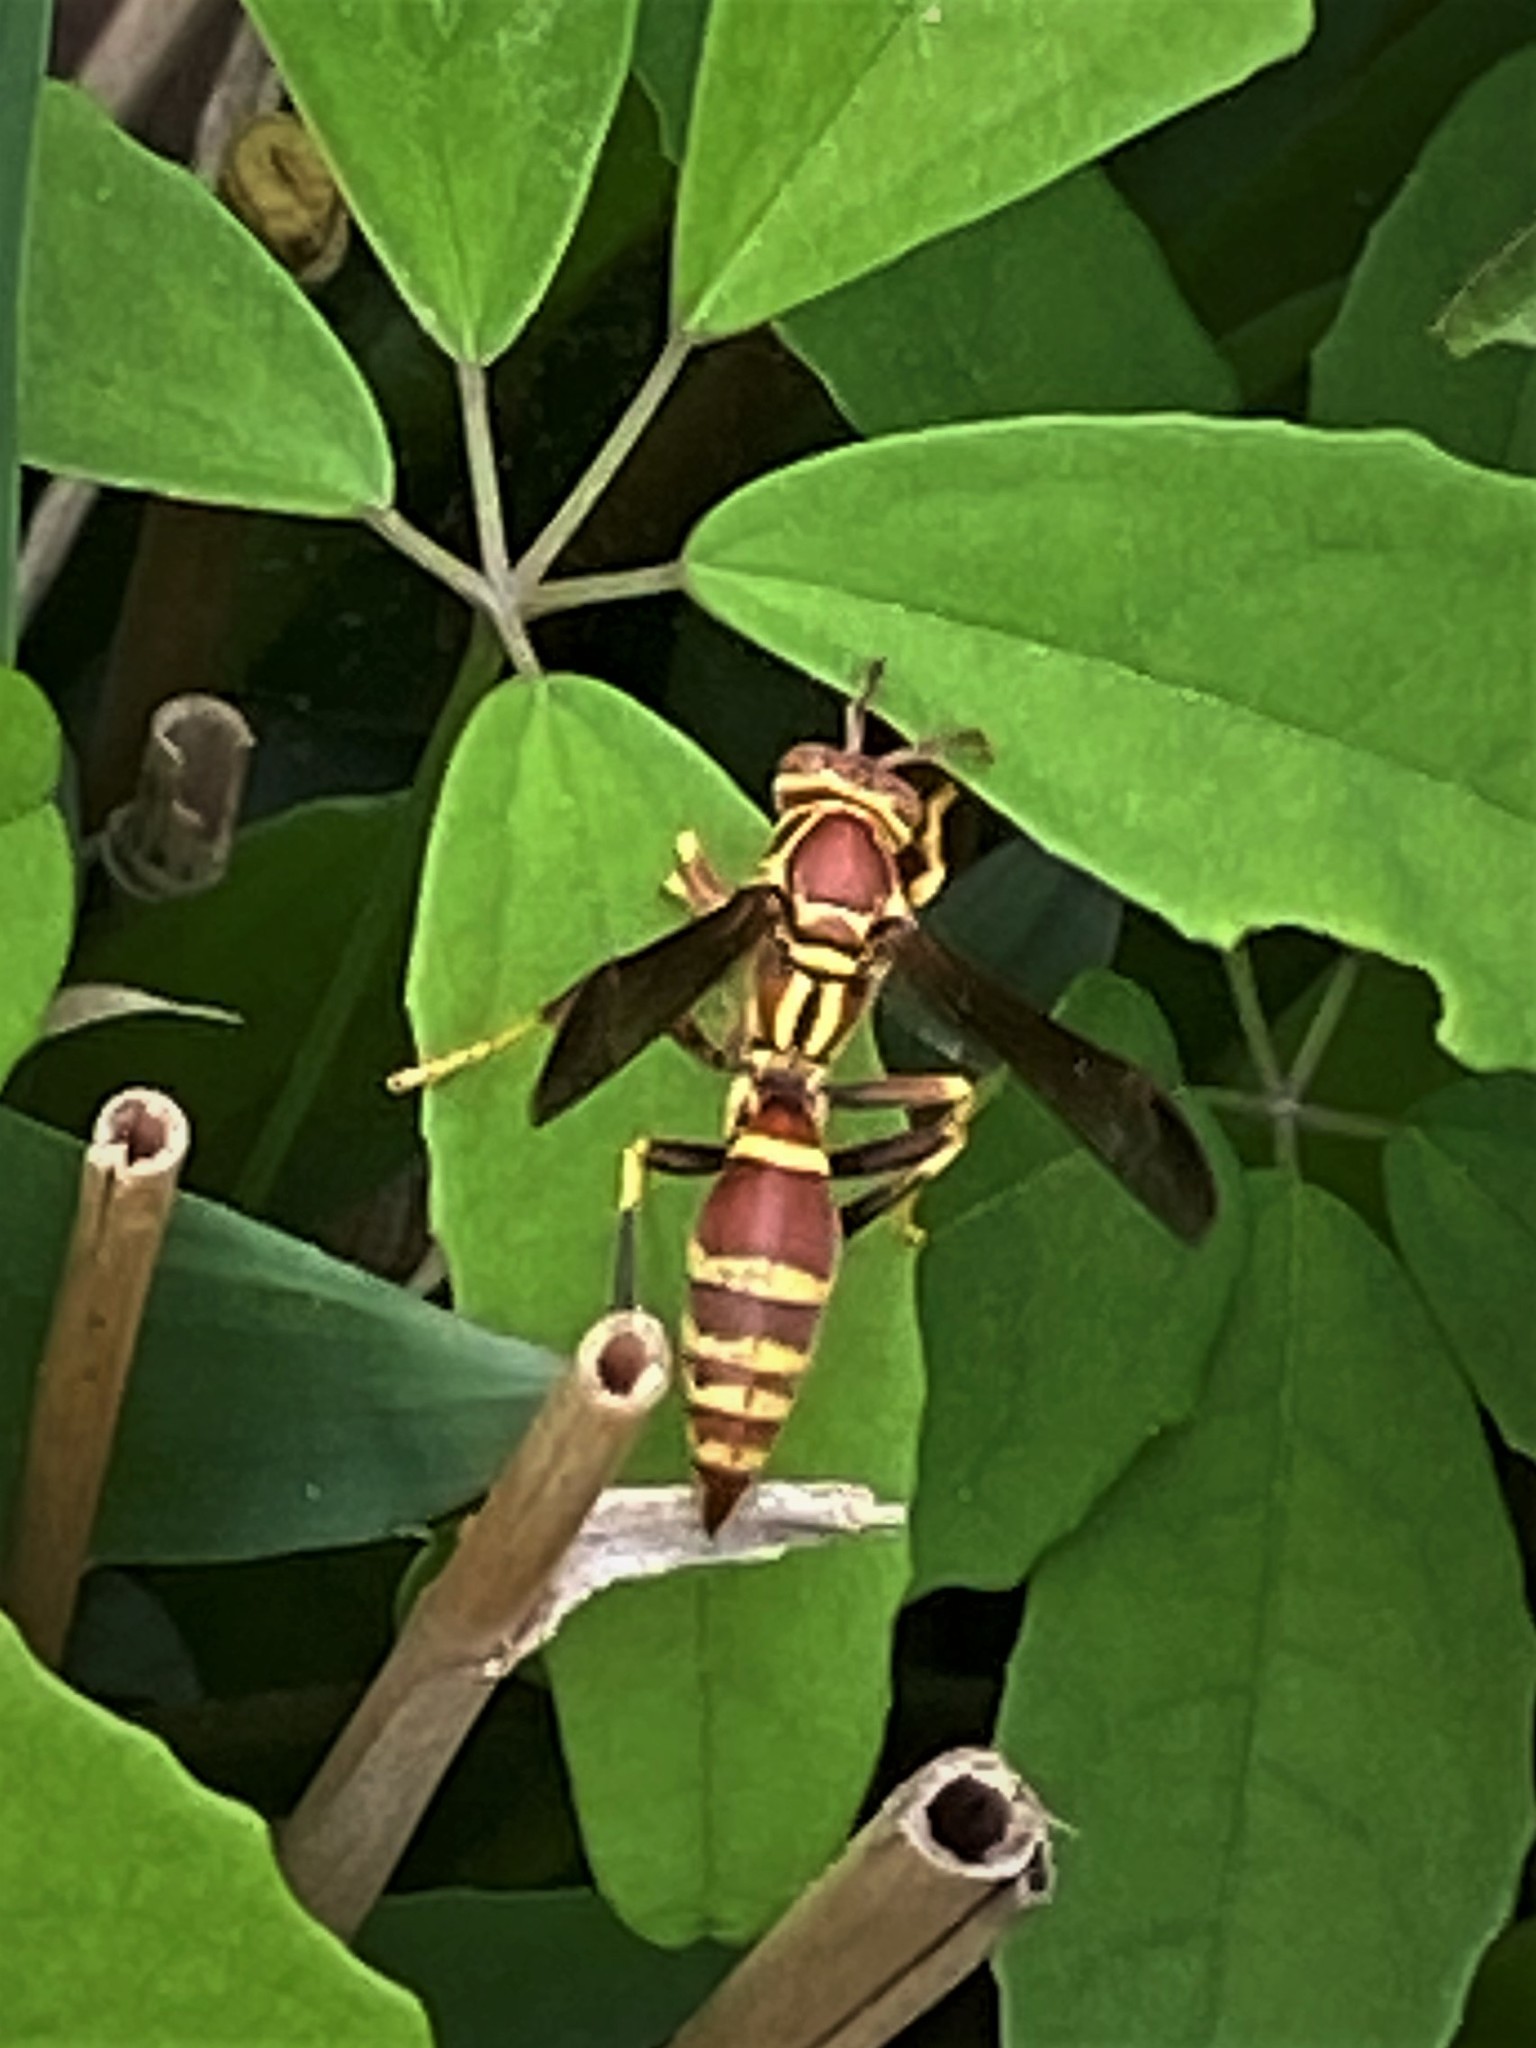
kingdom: Animalia
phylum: Arthropoda
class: Insecta
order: Hymenoptera
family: Eumenidae
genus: Polistes
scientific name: Polistes exclamans
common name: Paper wasp
